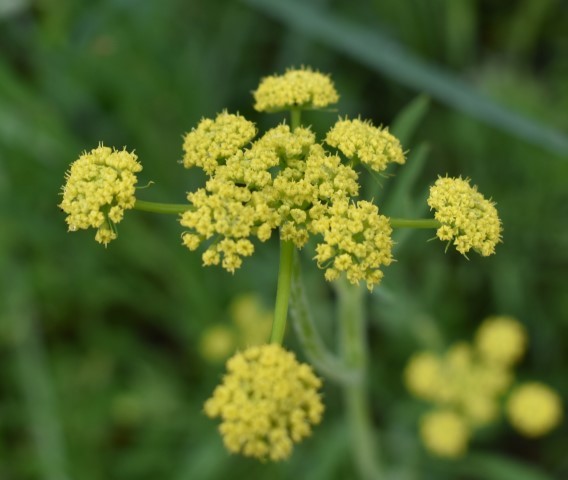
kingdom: Plantae
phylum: Tracheophyta
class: Magnoliopsida
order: Apiales
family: Apiaceae
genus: Lomatium
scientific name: Lomatium triternatum
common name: Ternate lomatium
